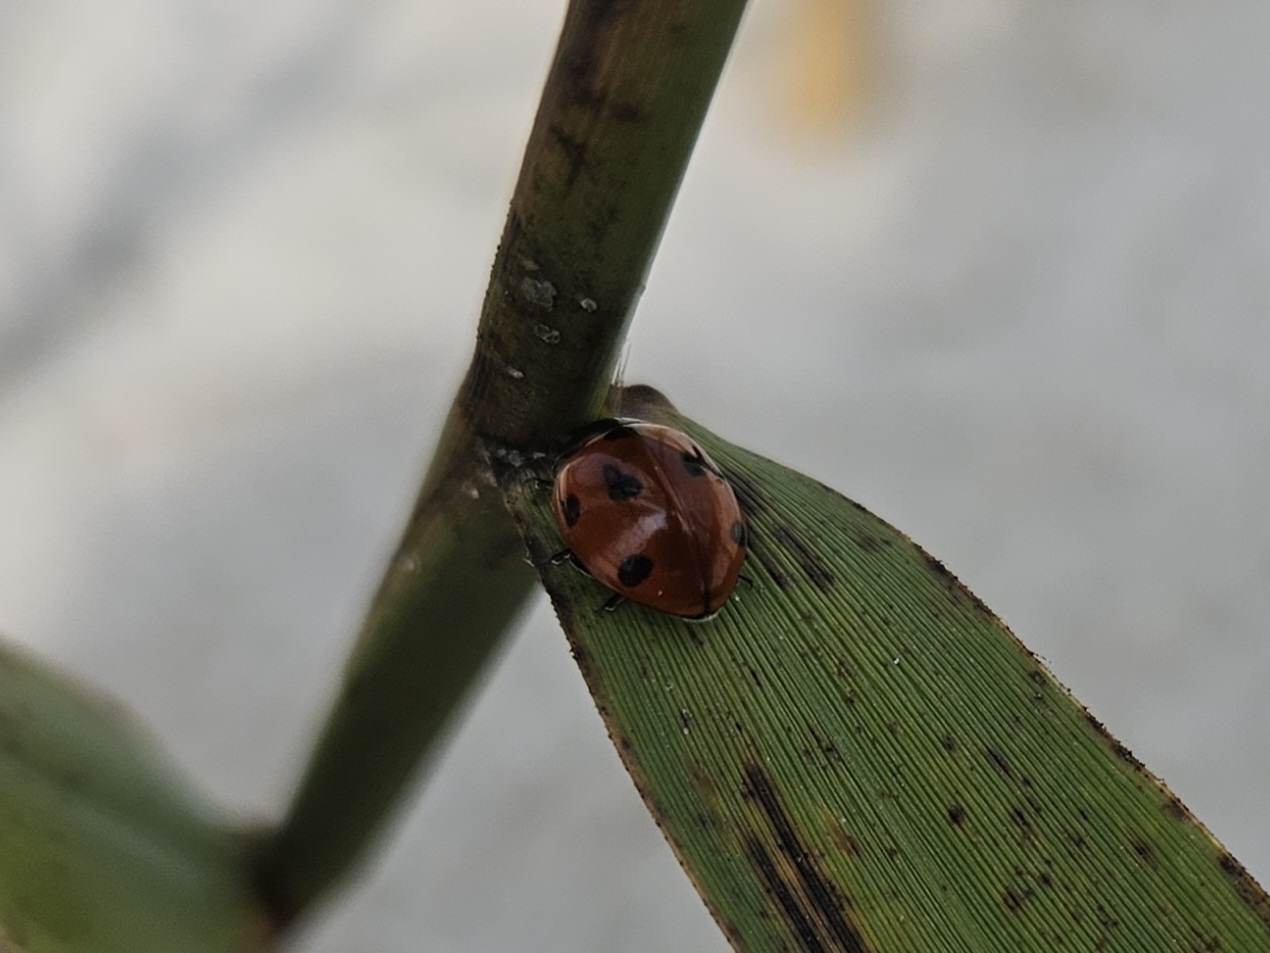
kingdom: Animalia
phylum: Arthropoda
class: Insecta
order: Coleoptera
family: Coccinellidae
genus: Coccinella
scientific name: Coccinella septempunctata
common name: Sevenspotted lady beetle
